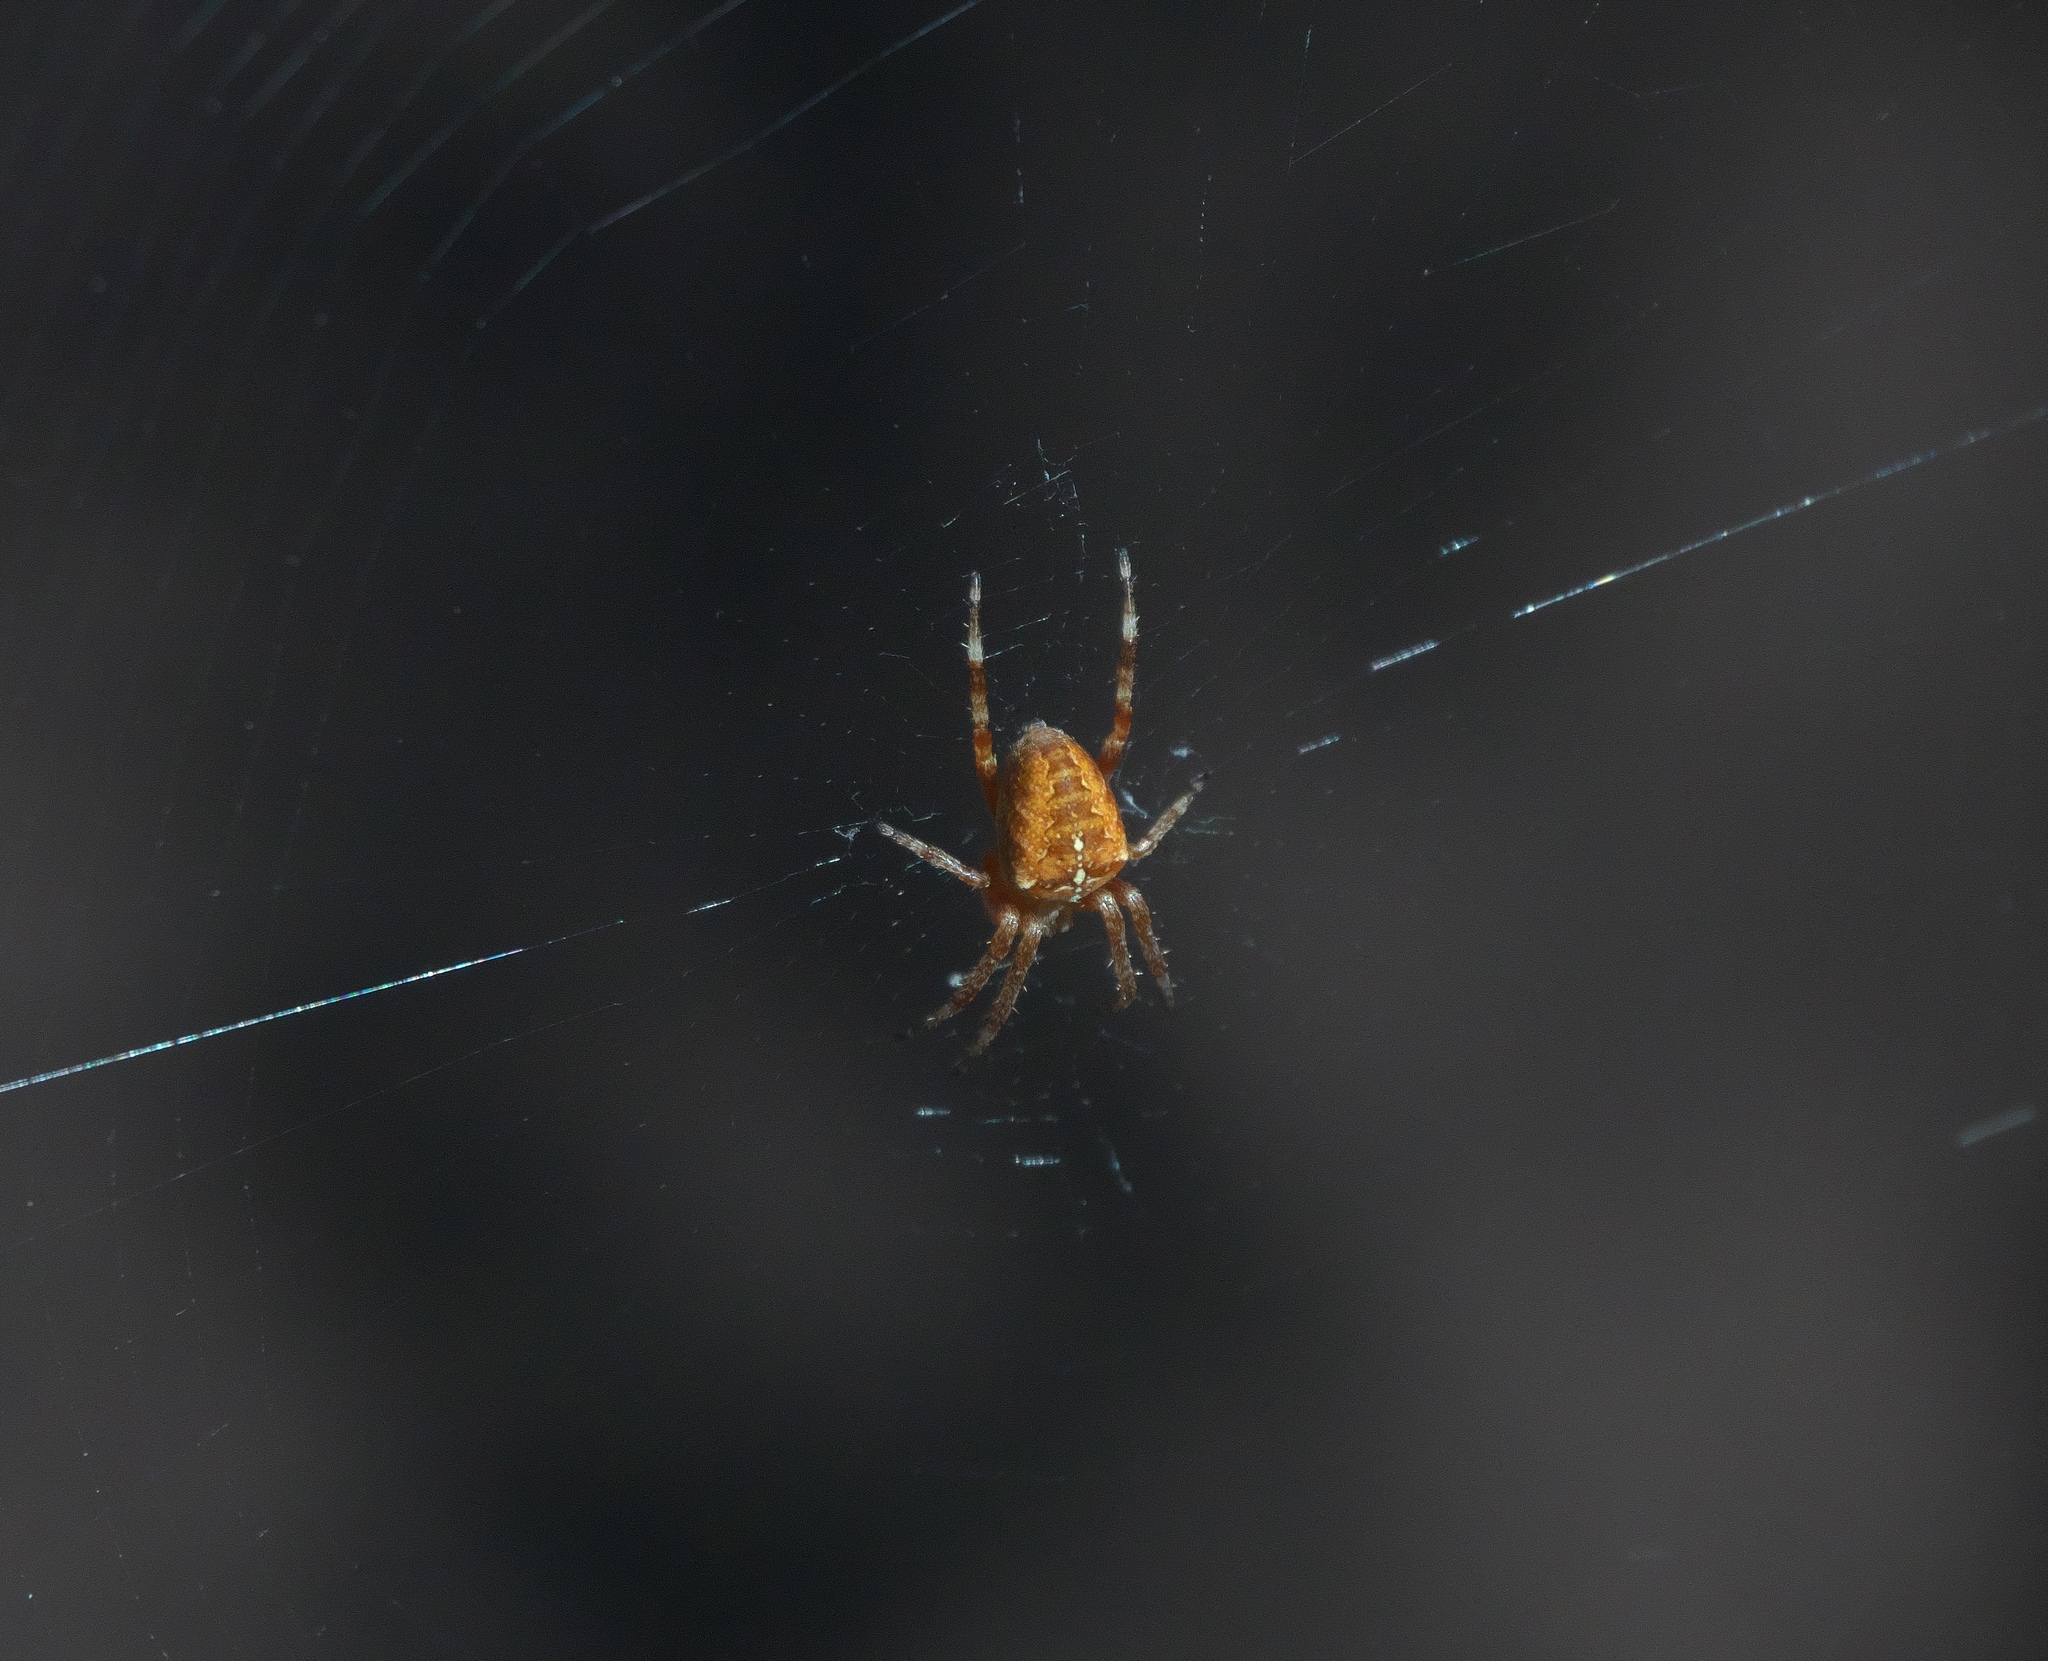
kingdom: Animalia
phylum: Arthropoda
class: Arachnida
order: Araneae
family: Araneidae
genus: Araneus
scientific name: Araneus diadematus
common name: Cross orbweaver
